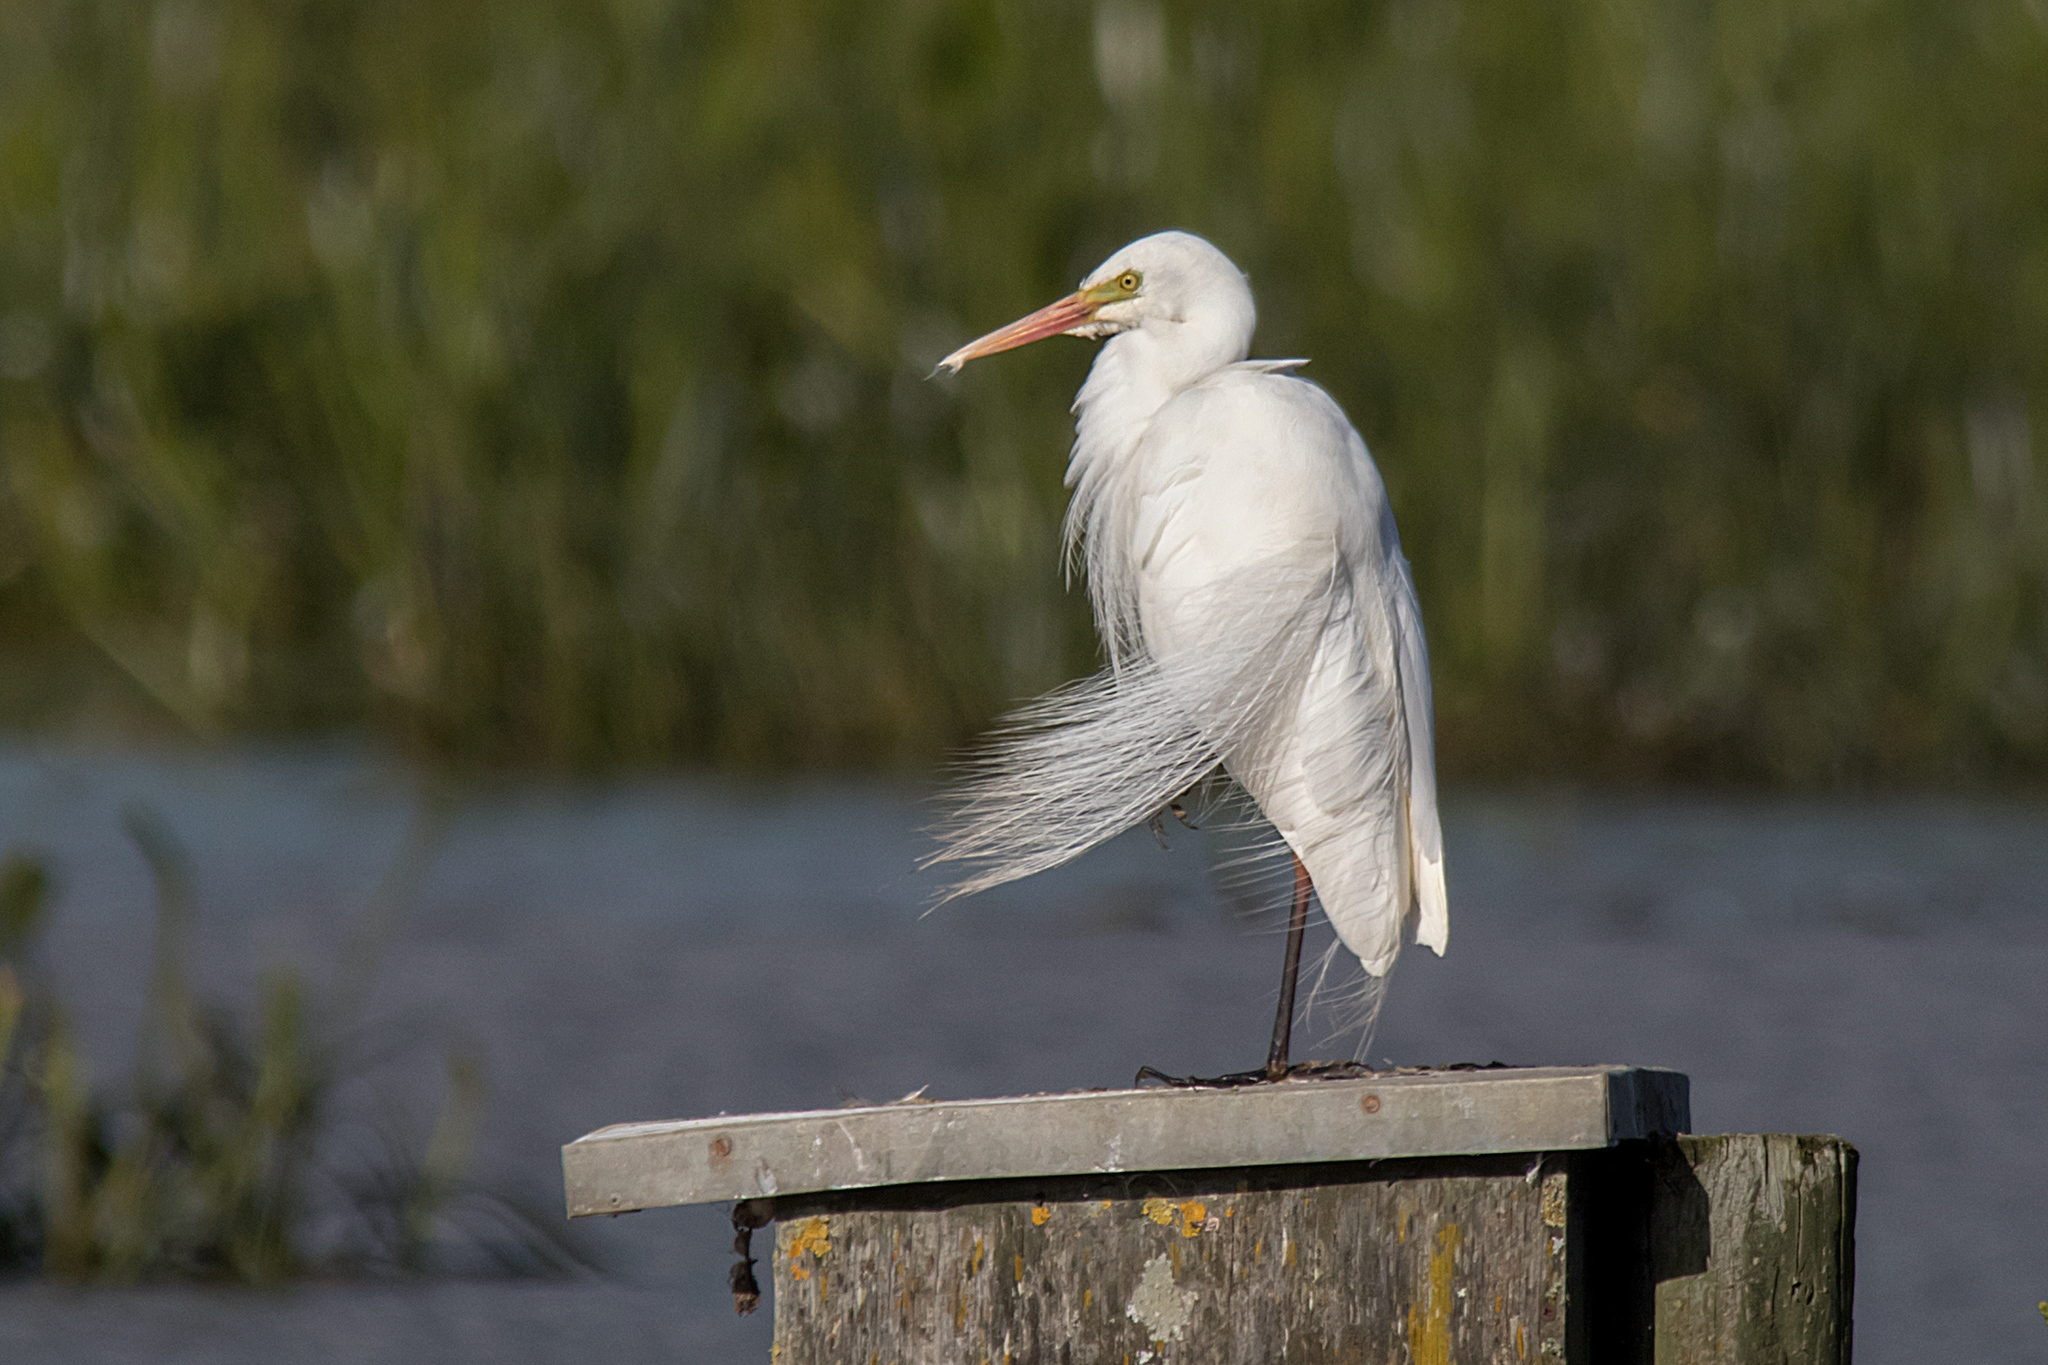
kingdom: Animalia
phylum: Chordata
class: Aves
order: Pelecaniformes
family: Ardeidae
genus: Egretta
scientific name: Egretta intermedia
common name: Intermediate egret
